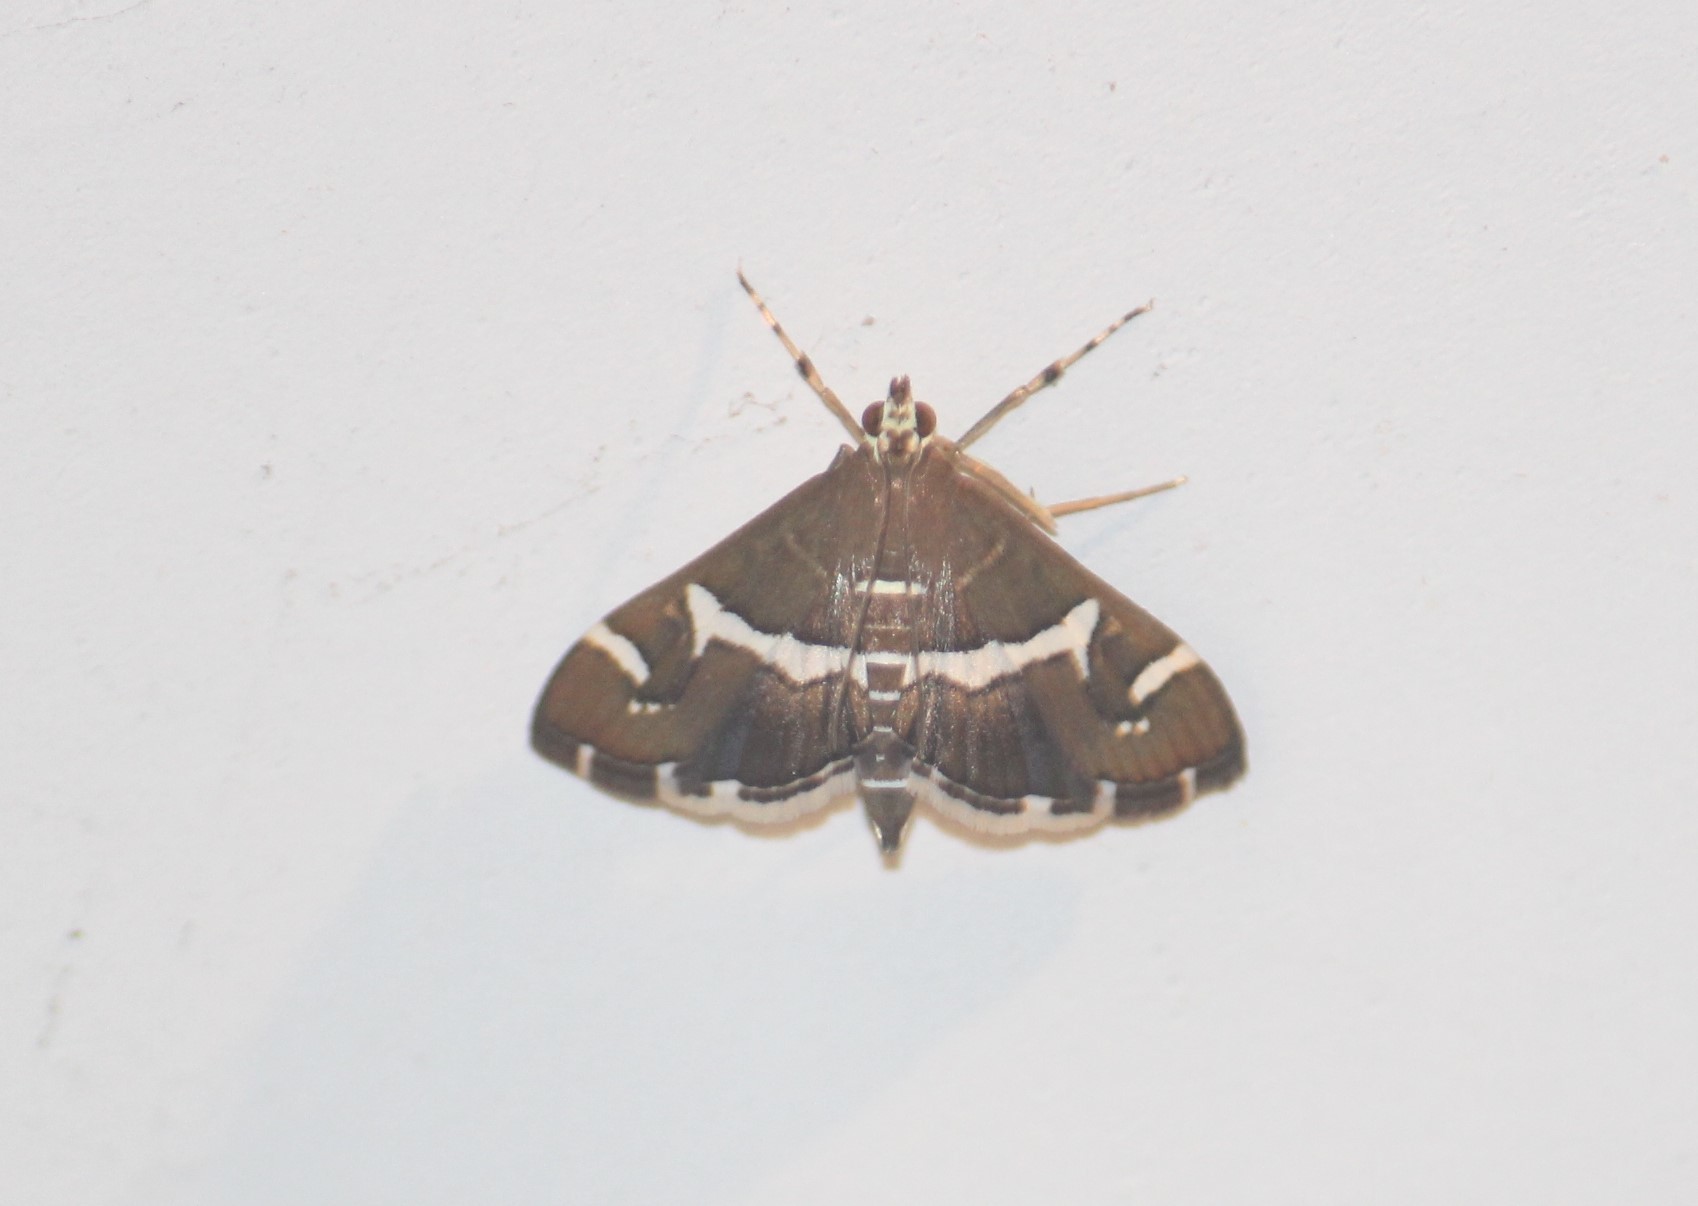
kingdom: Animalia
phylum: Arthropoda
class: Insecta
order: Lepidoptera
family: Crambidae
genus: Spoladea
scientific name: Spoladea recurvalis
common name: Beet webworm moth
